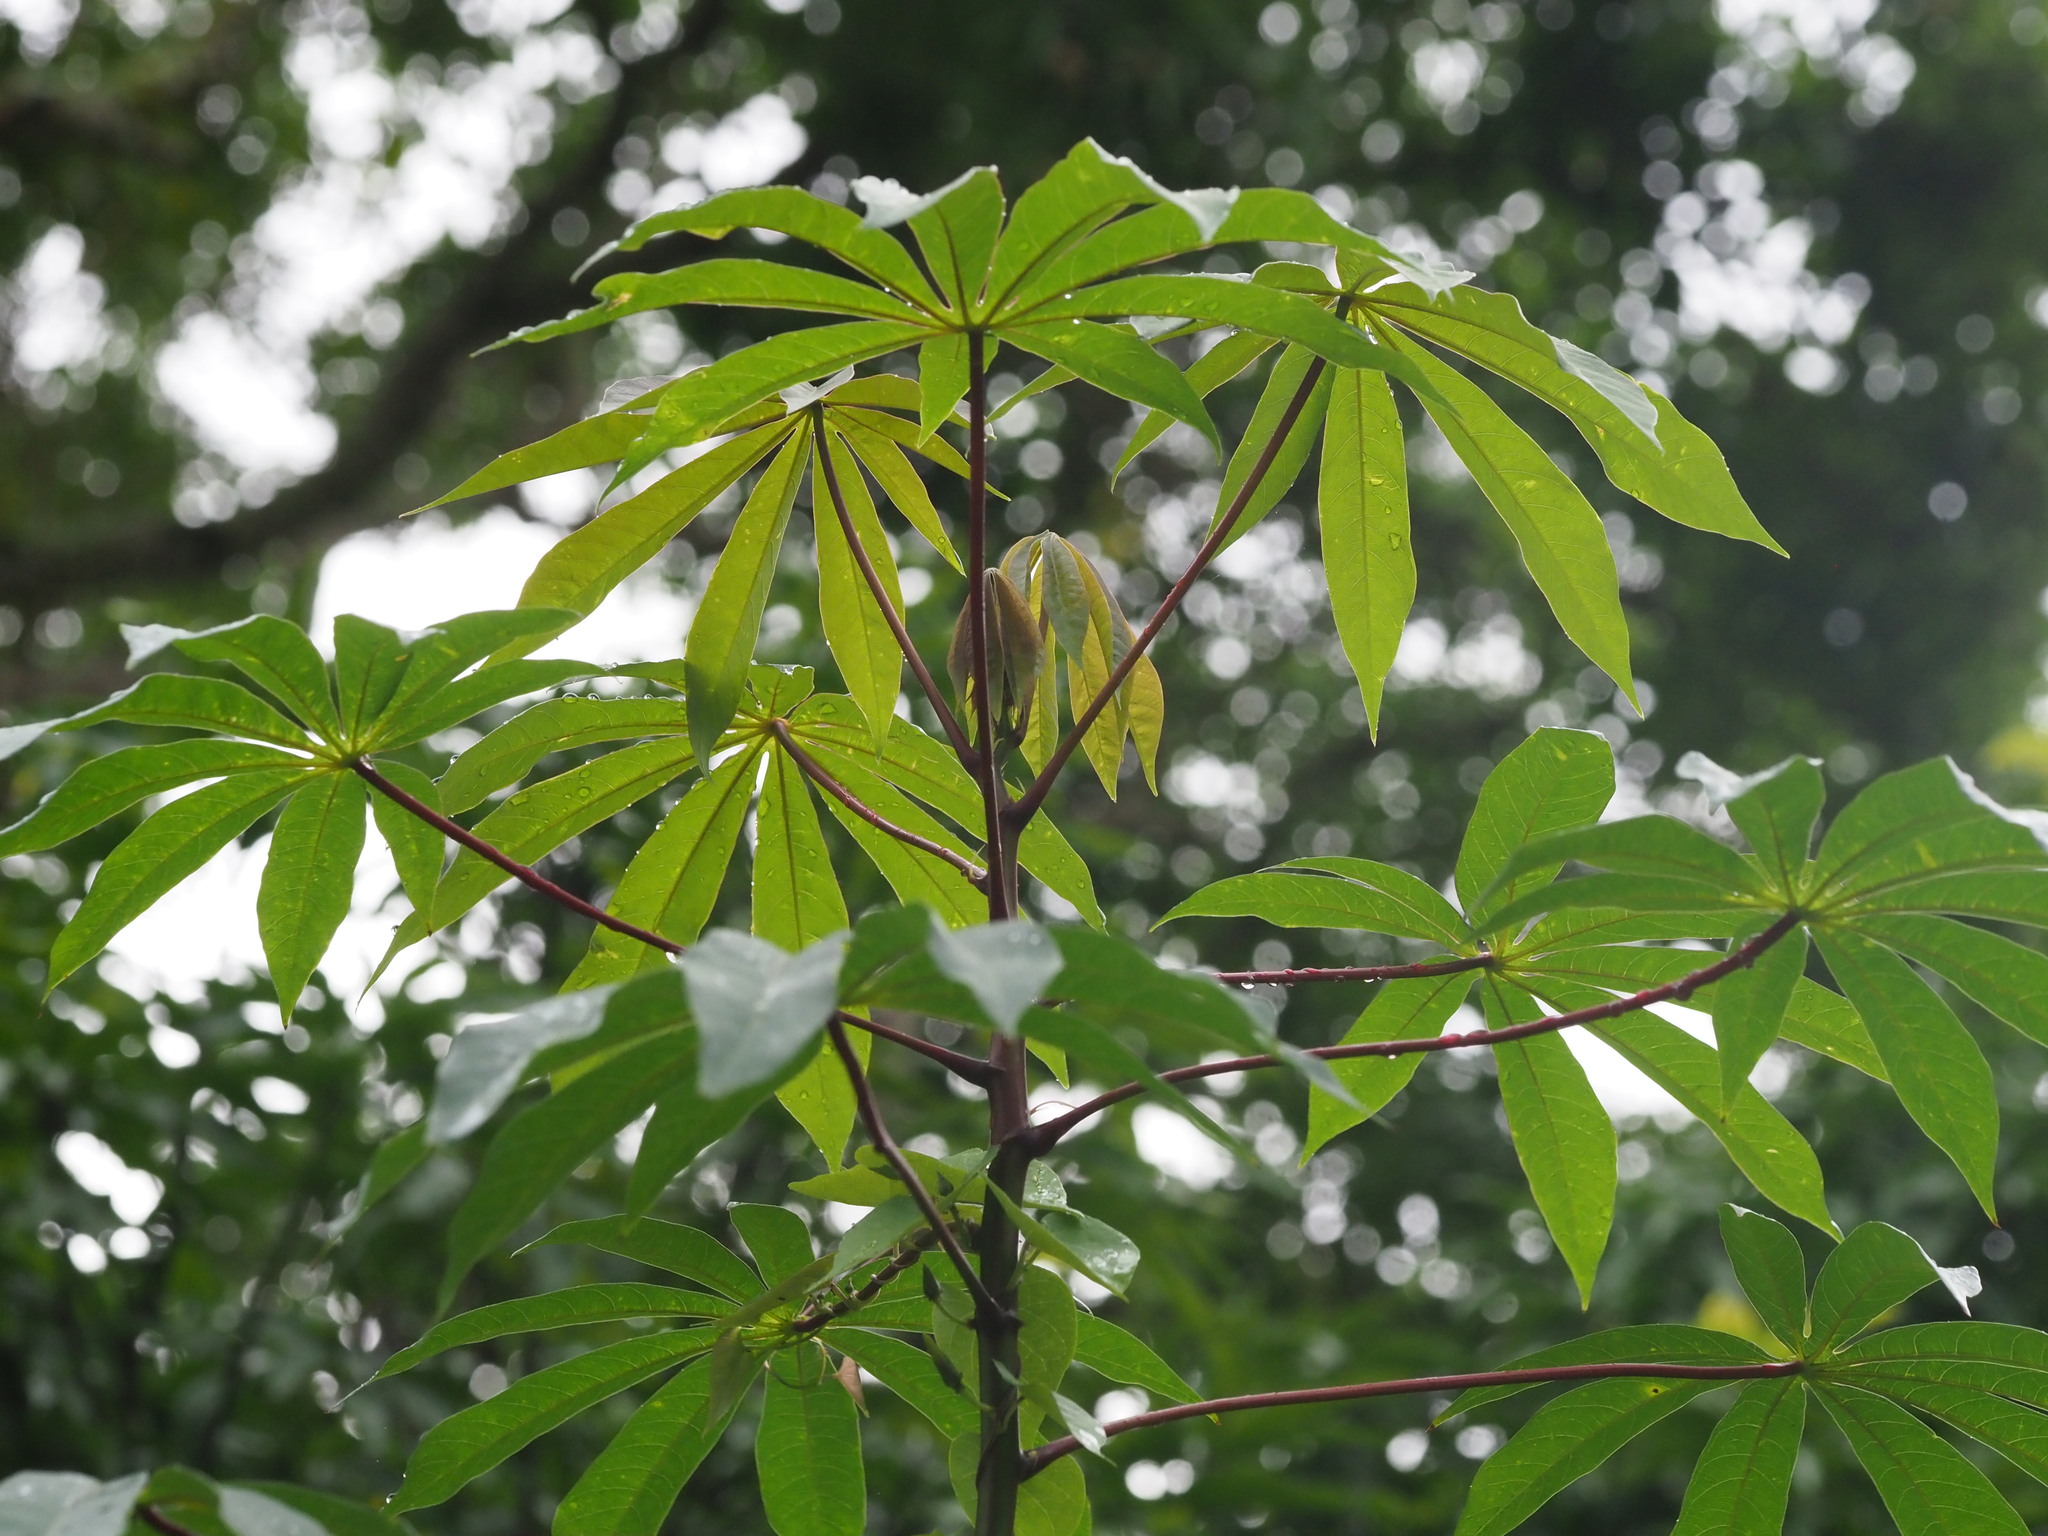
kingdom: Plantae
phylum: Tracheophyta
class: Magnoliopsida
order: Malpighiales
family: Euphorbiaceae
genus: Manihot
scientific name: Manihot esculenta
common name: Cassava
